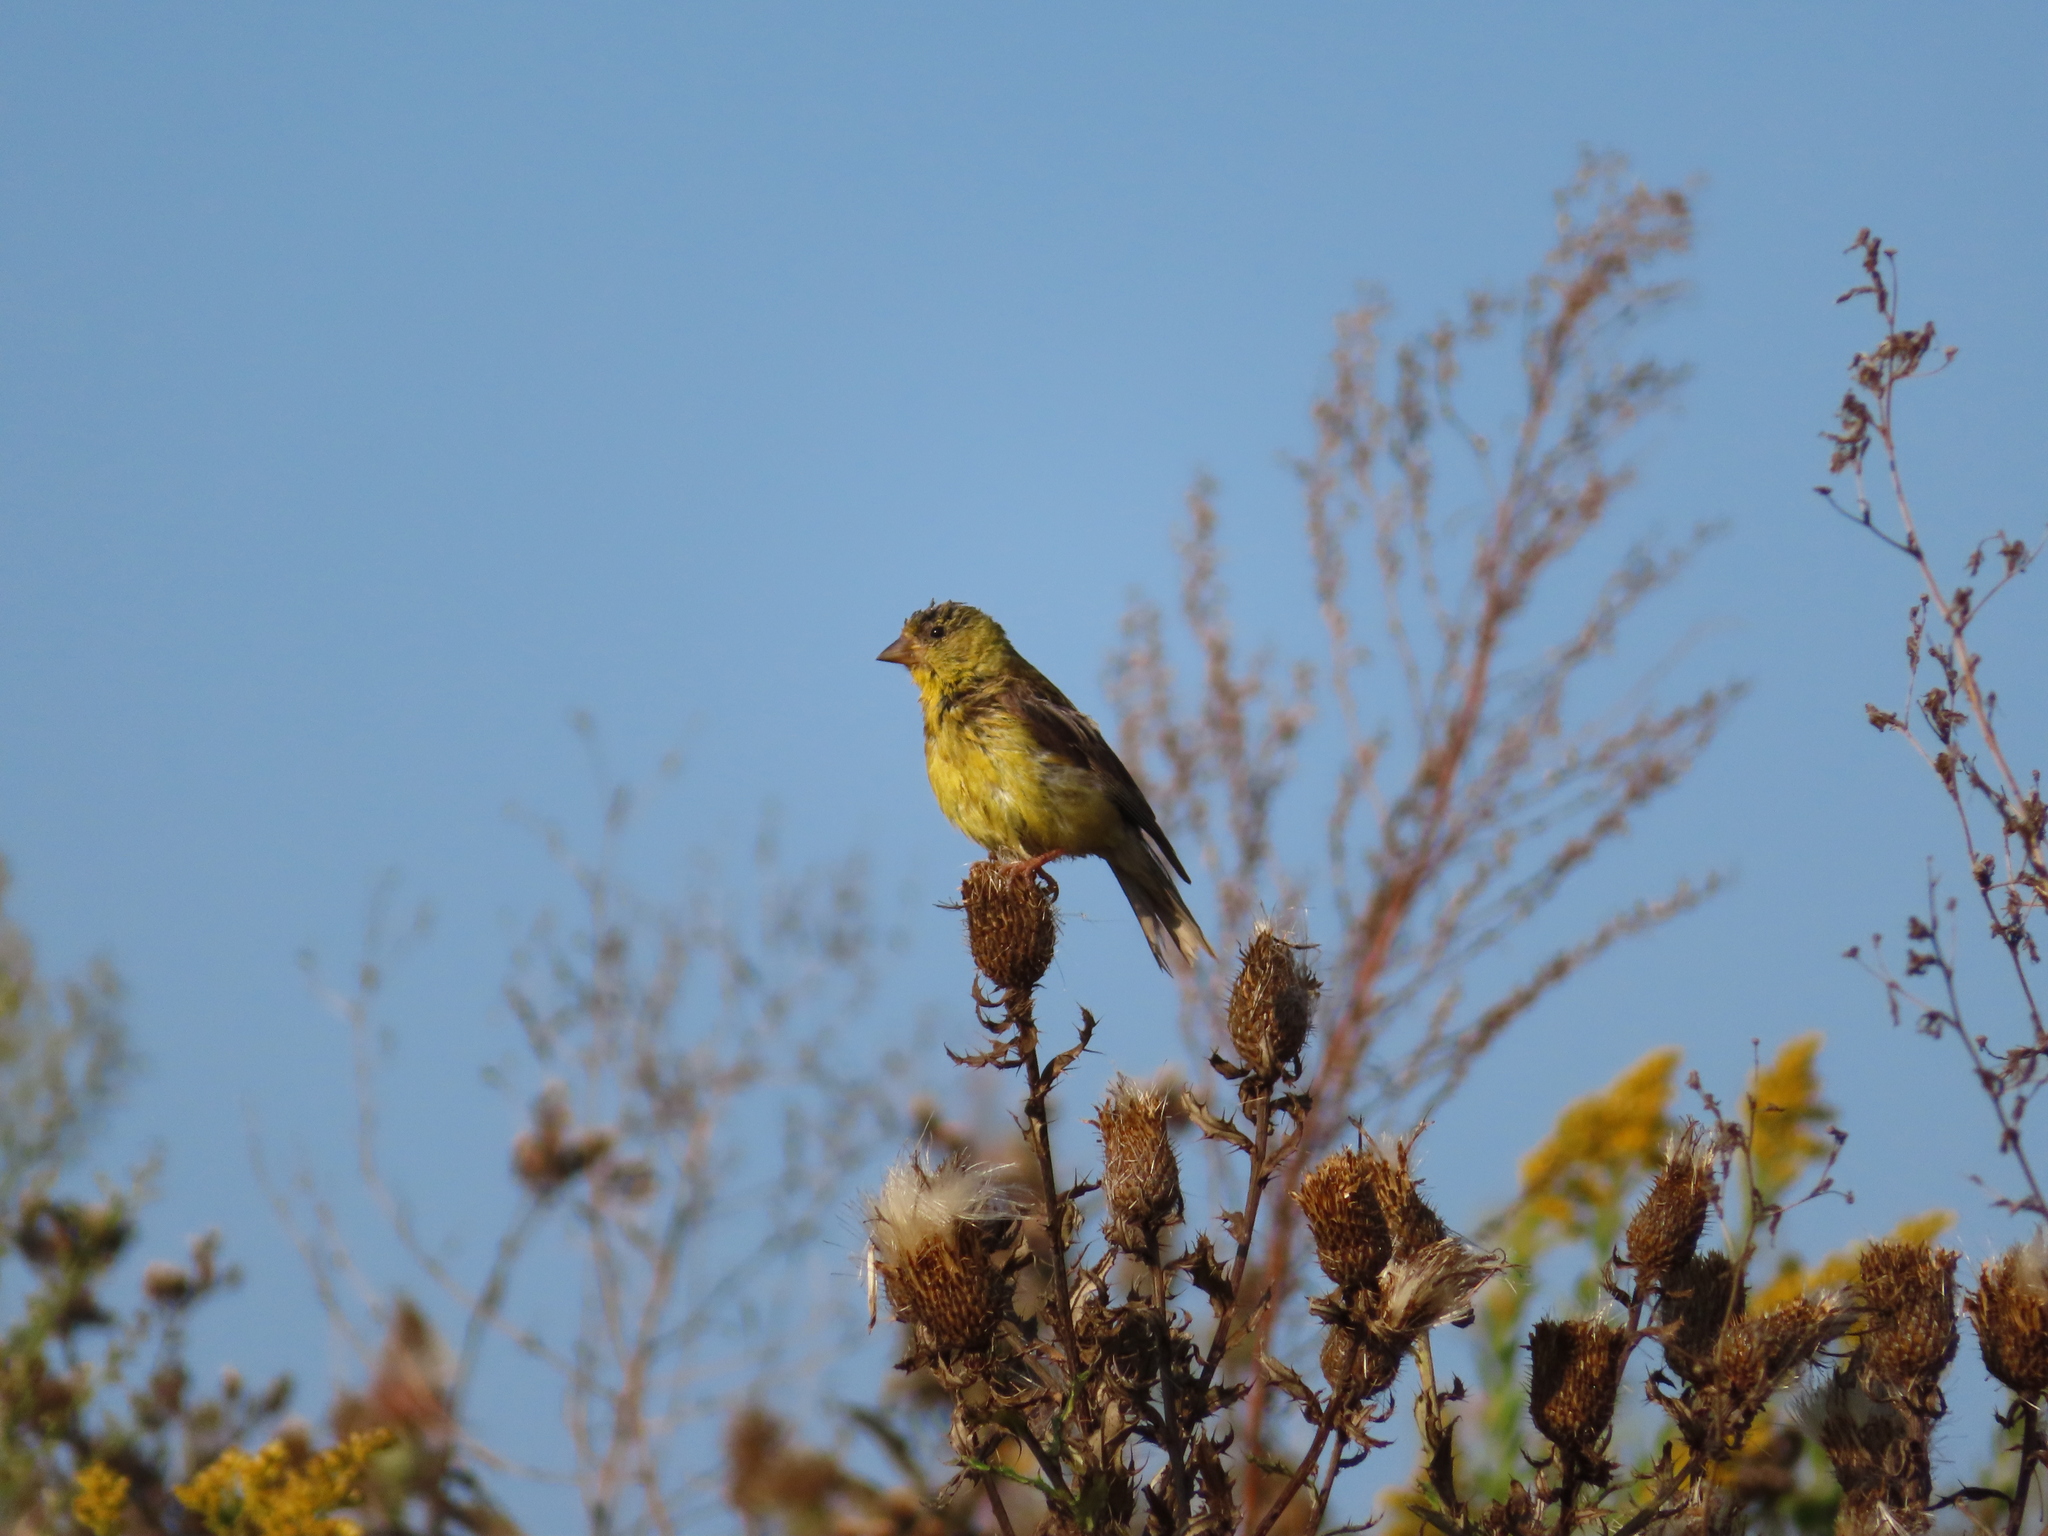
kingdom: Animalia
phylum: Chordata
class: Aves
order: Passeriformes
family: Fringillidae
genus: Spinus
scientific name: Spinus tristis
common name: American goldfinch
